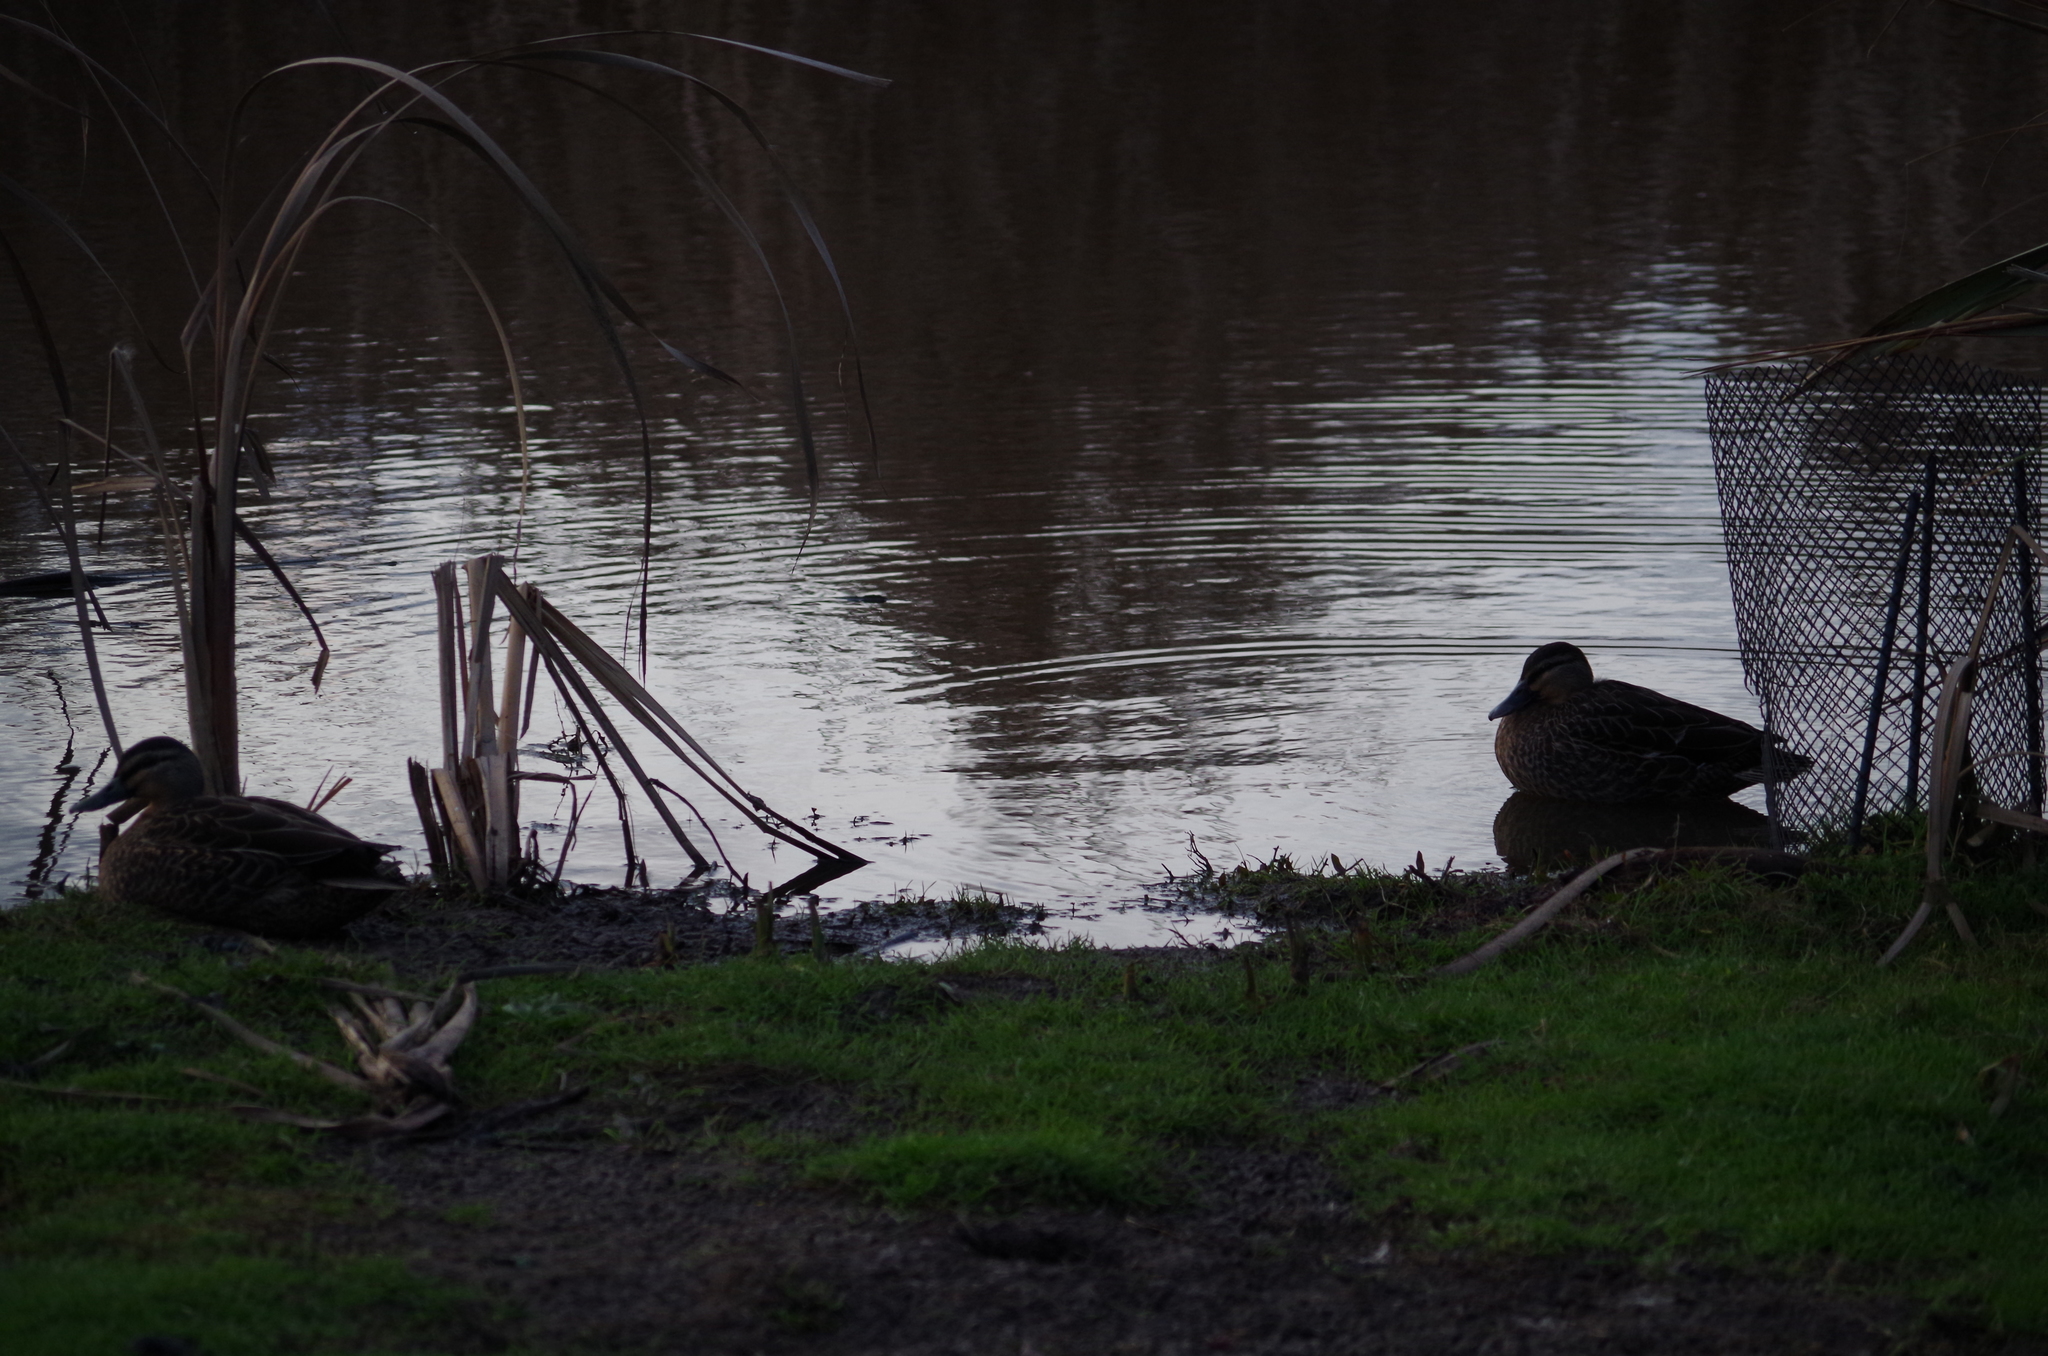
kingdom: Animalia
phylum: Chordata
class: Aves
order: Anseriformes
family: Anatidae
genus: Anas
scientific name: Anas
